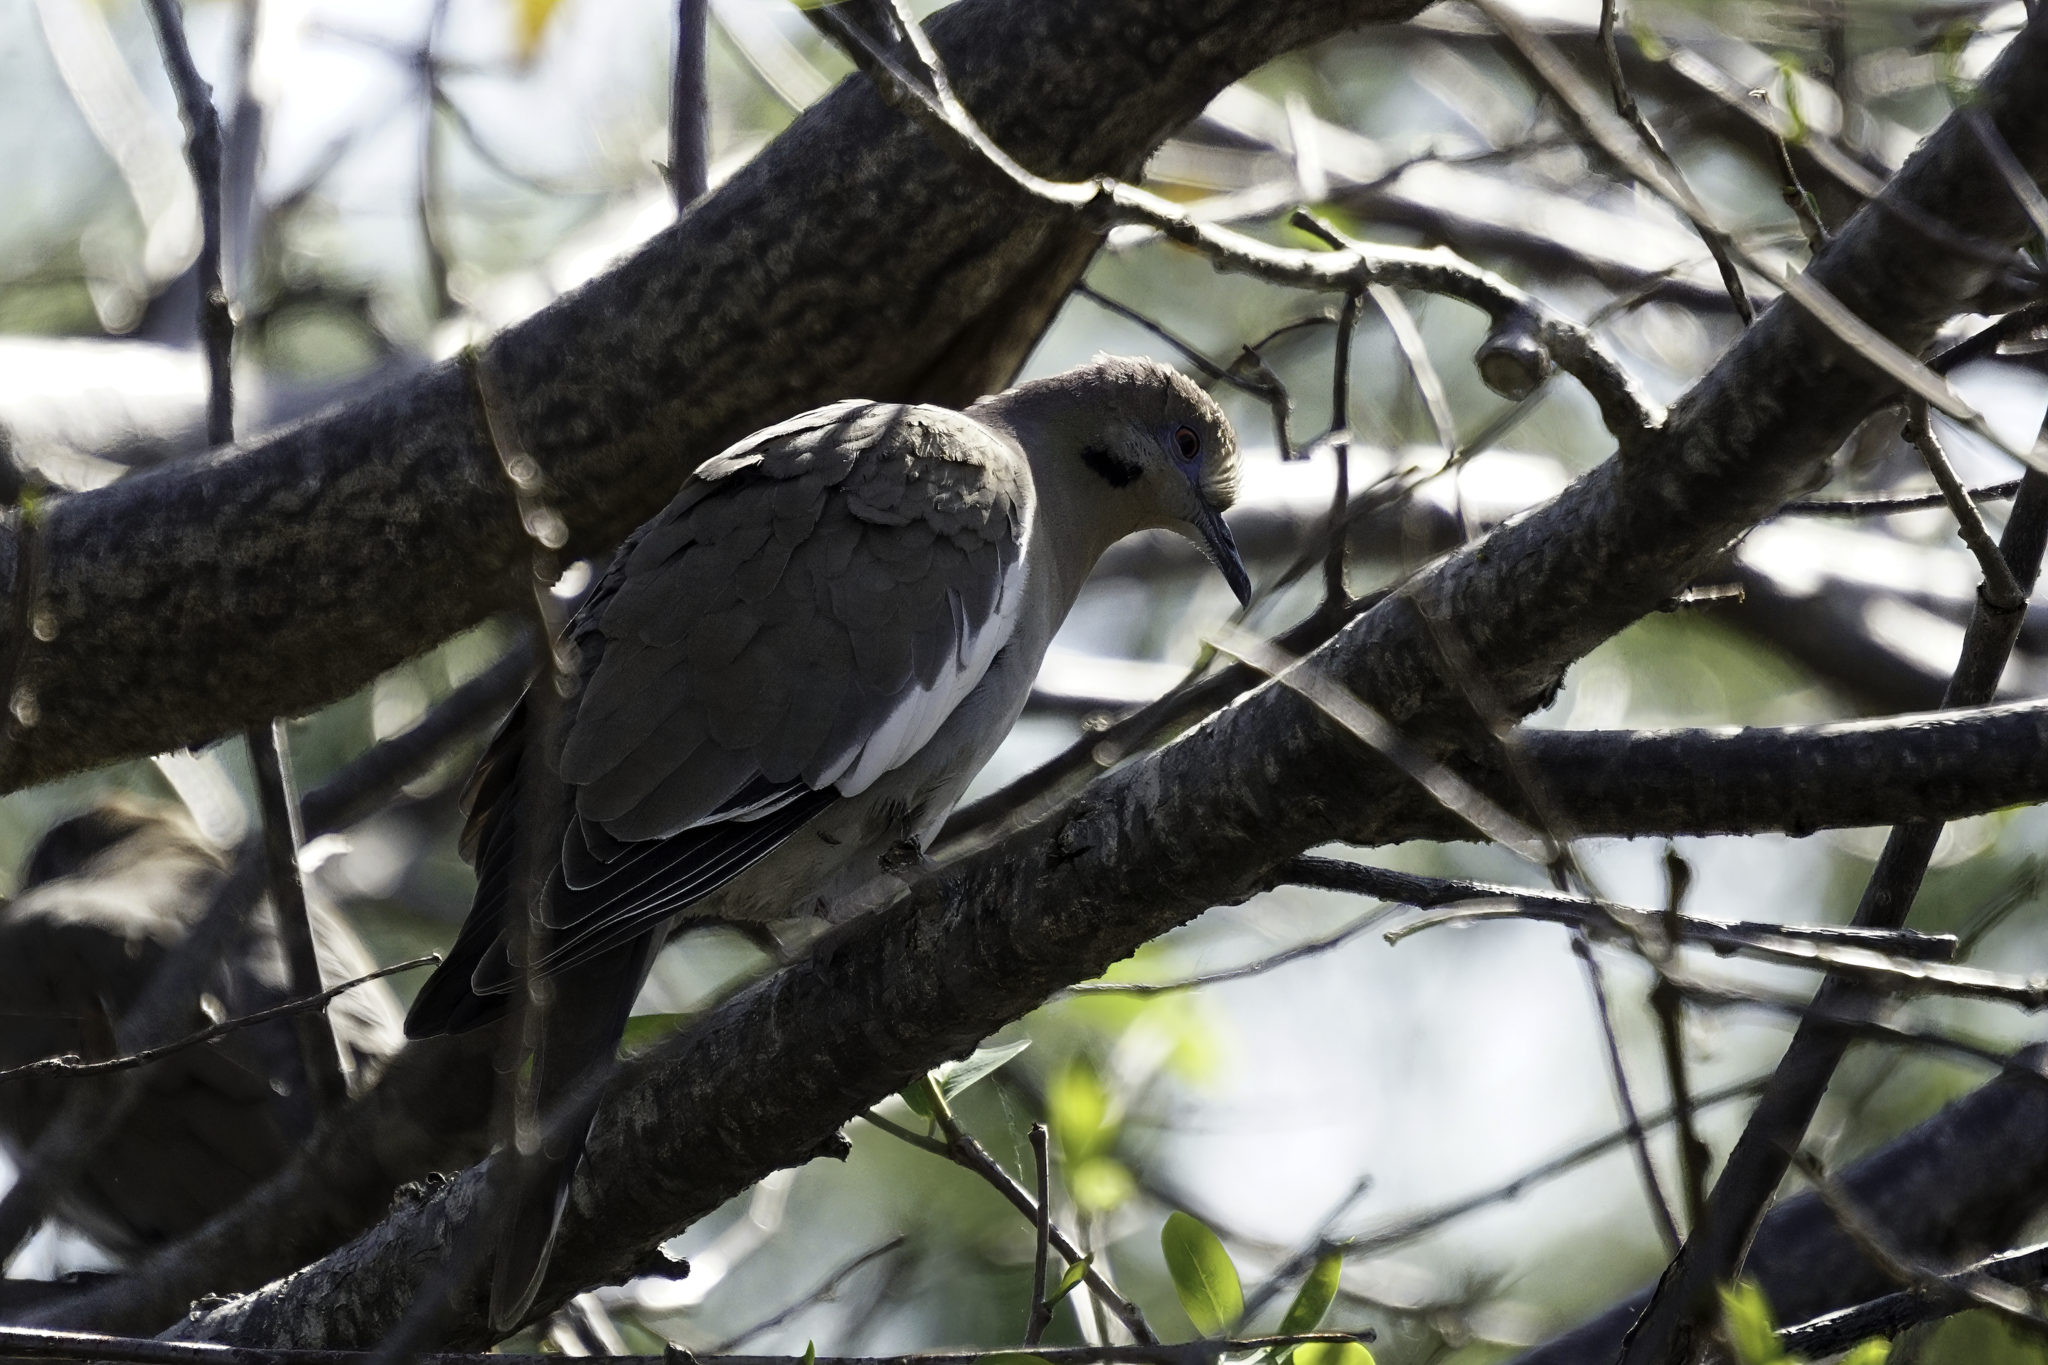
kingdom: Animalia
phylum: Chordata
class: Aves
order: Columbiformes
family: Columbidae
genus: Zenaida
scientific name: Zenaida asiatica
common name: White-winged dove
